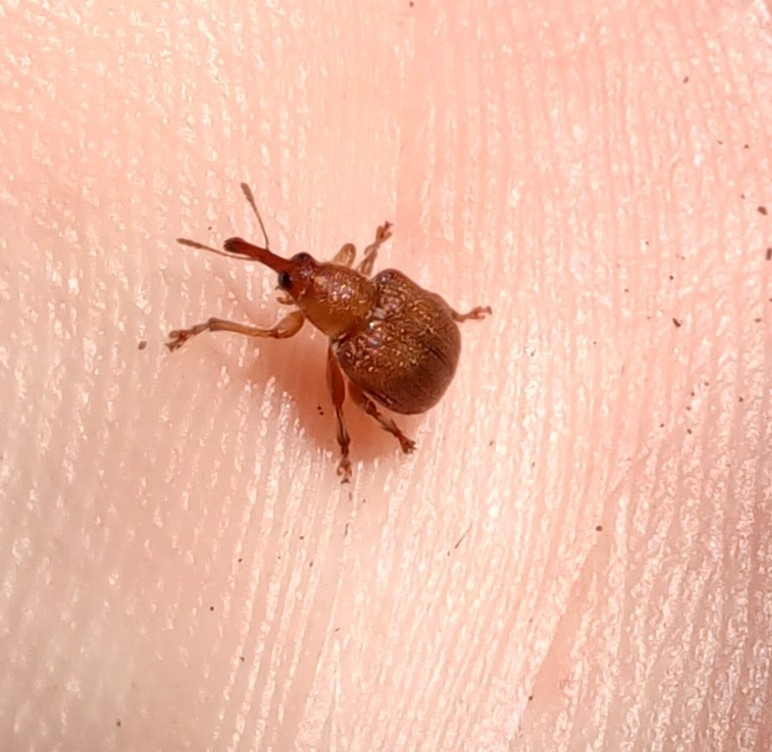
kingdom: Animalia
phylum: Arthropoda
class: Insecta
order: Coleoptera
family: Attelabidae
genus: Rhodocyrtus
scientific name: Rhodocyrtus cribripennis
